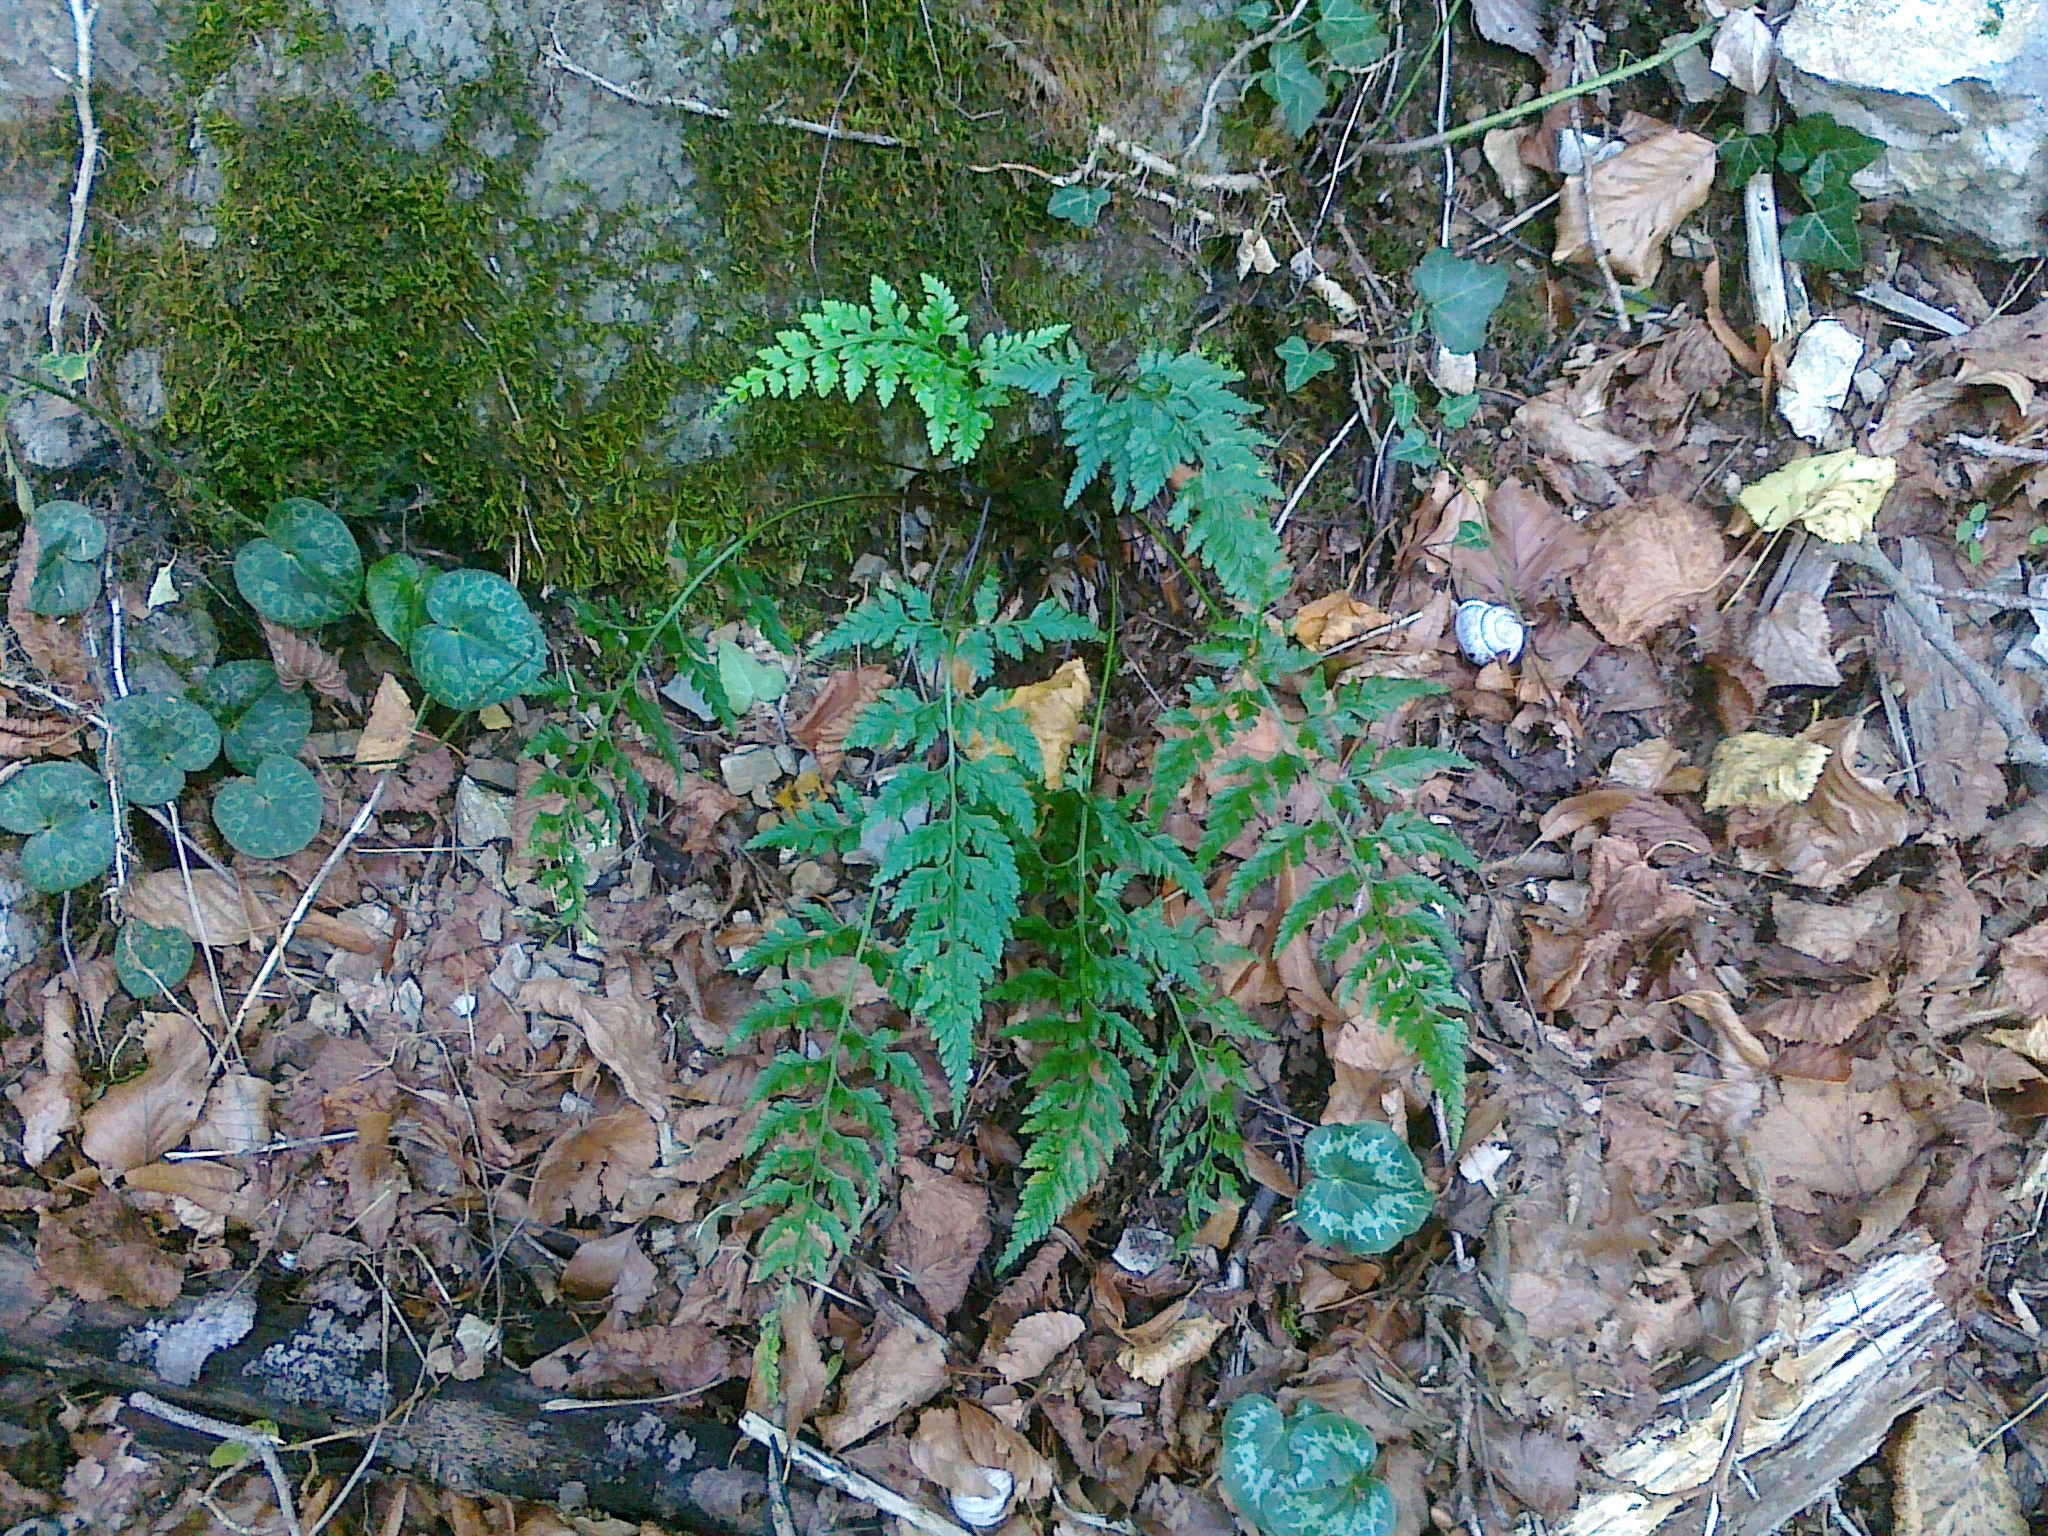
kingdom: Plantae
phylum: Tracheophyta
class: Polypodiopsida
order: Polypodiales
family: Aspleniaceae
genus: Asplenium
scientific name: Asplenium adiantum-nigrum
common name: Black spleenwort
